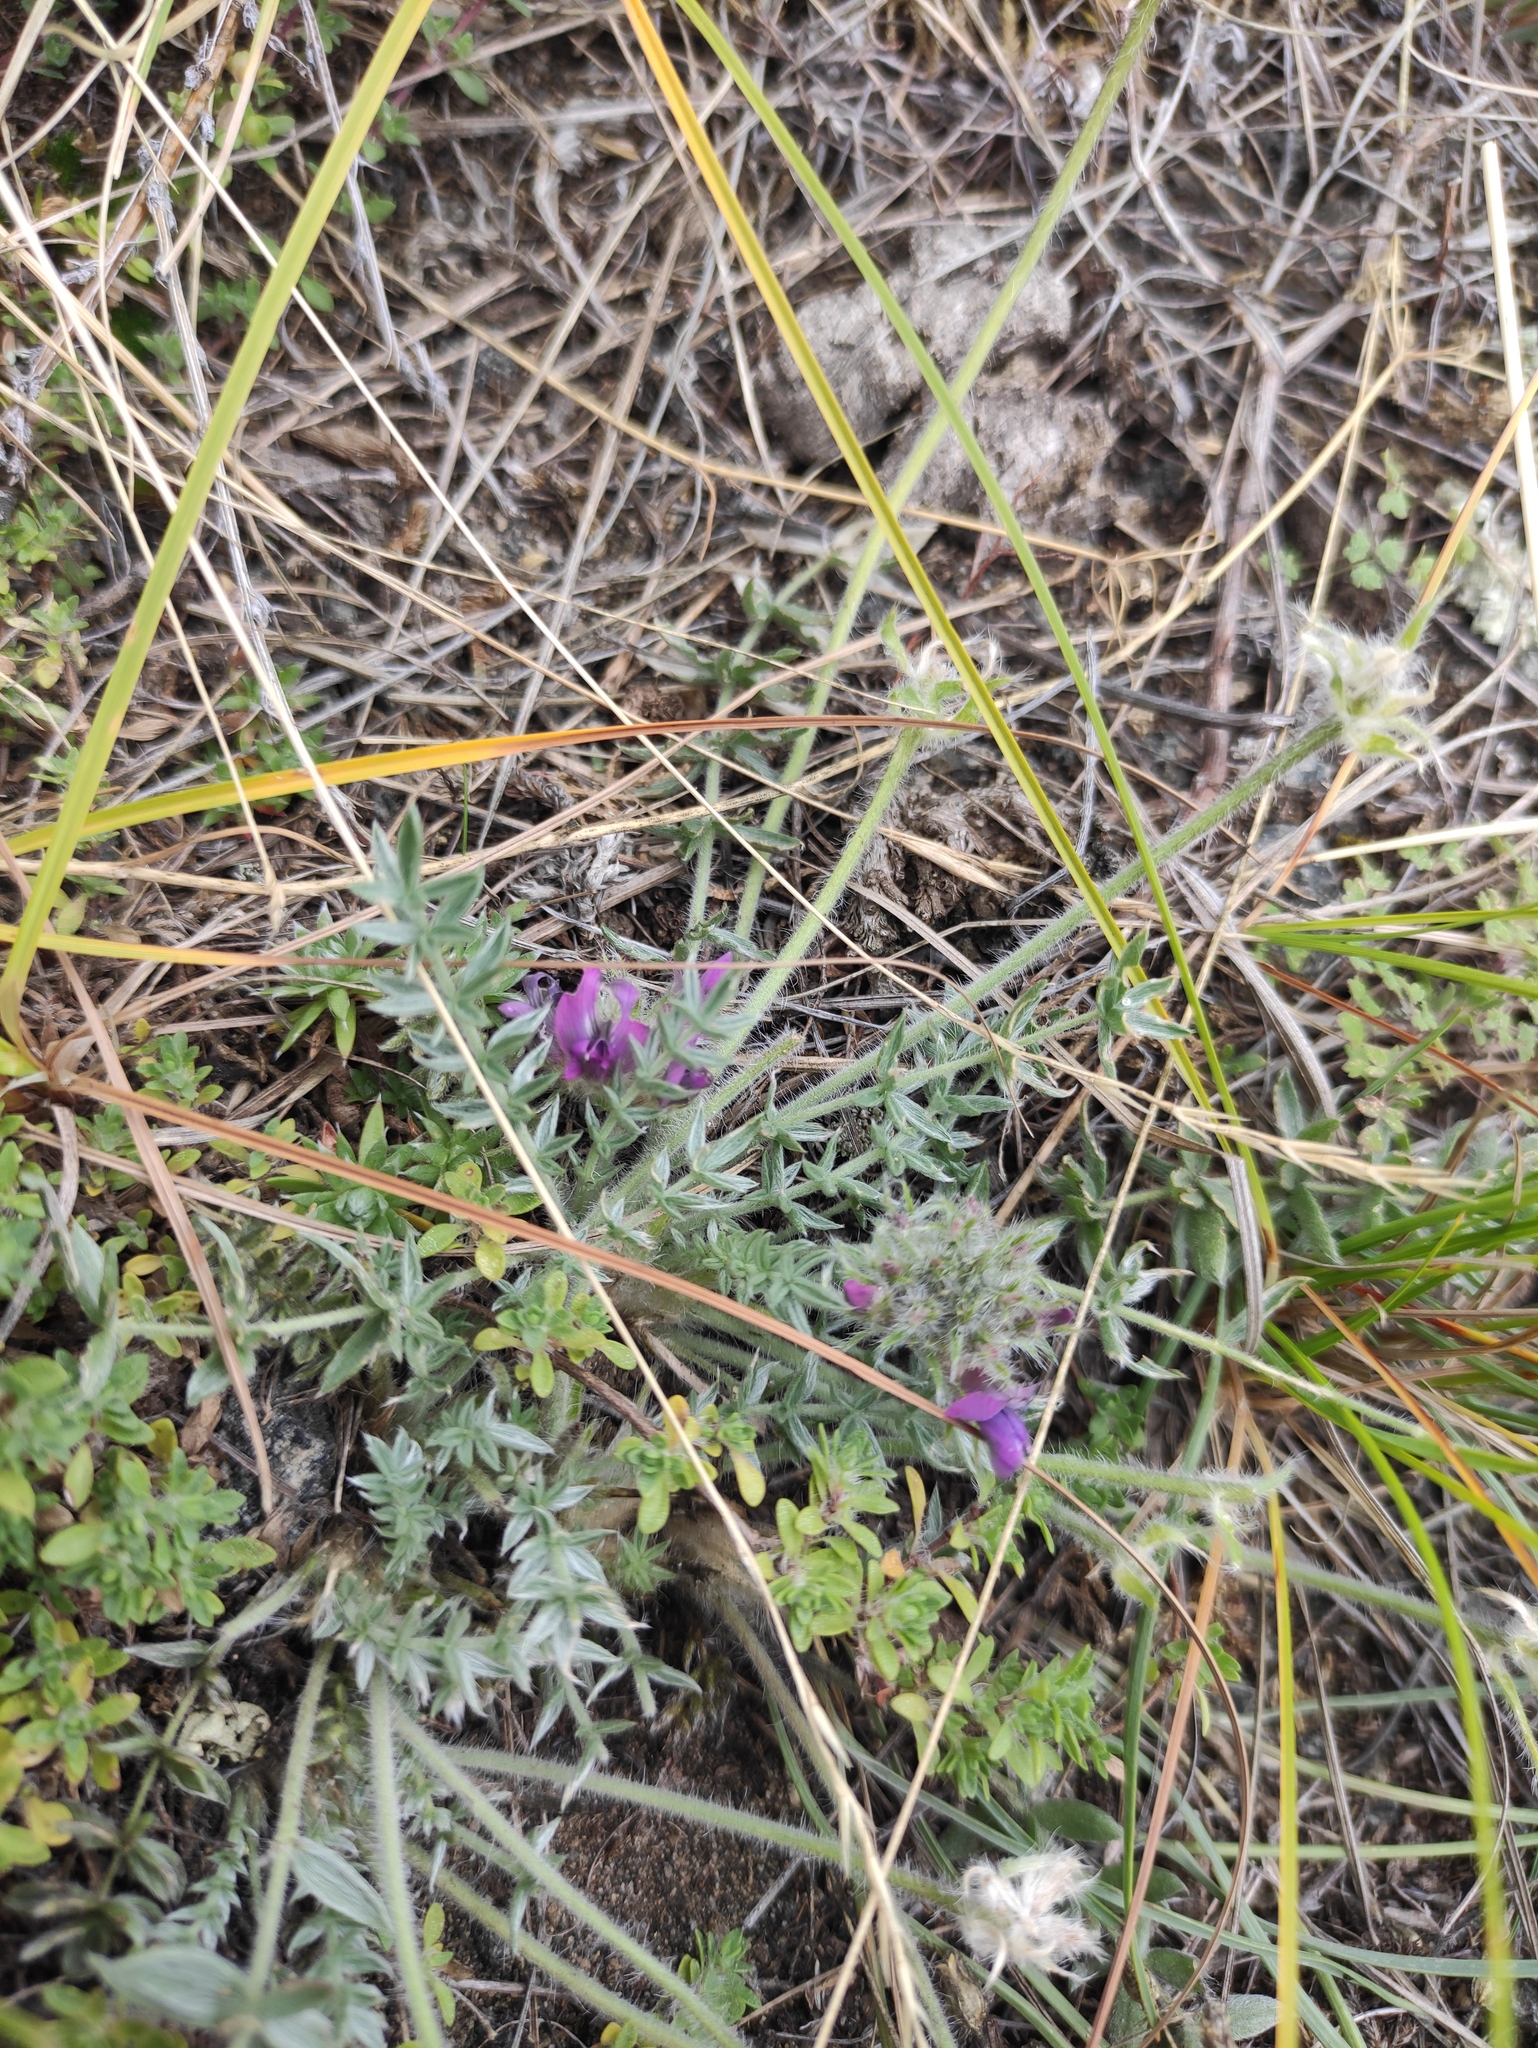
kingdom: Plantae
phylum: Tracheophyta
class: Magnoliopsida
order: Fabales
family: Fabaceae
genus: Oxytropis
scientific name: Oxytropis turczaninovii
